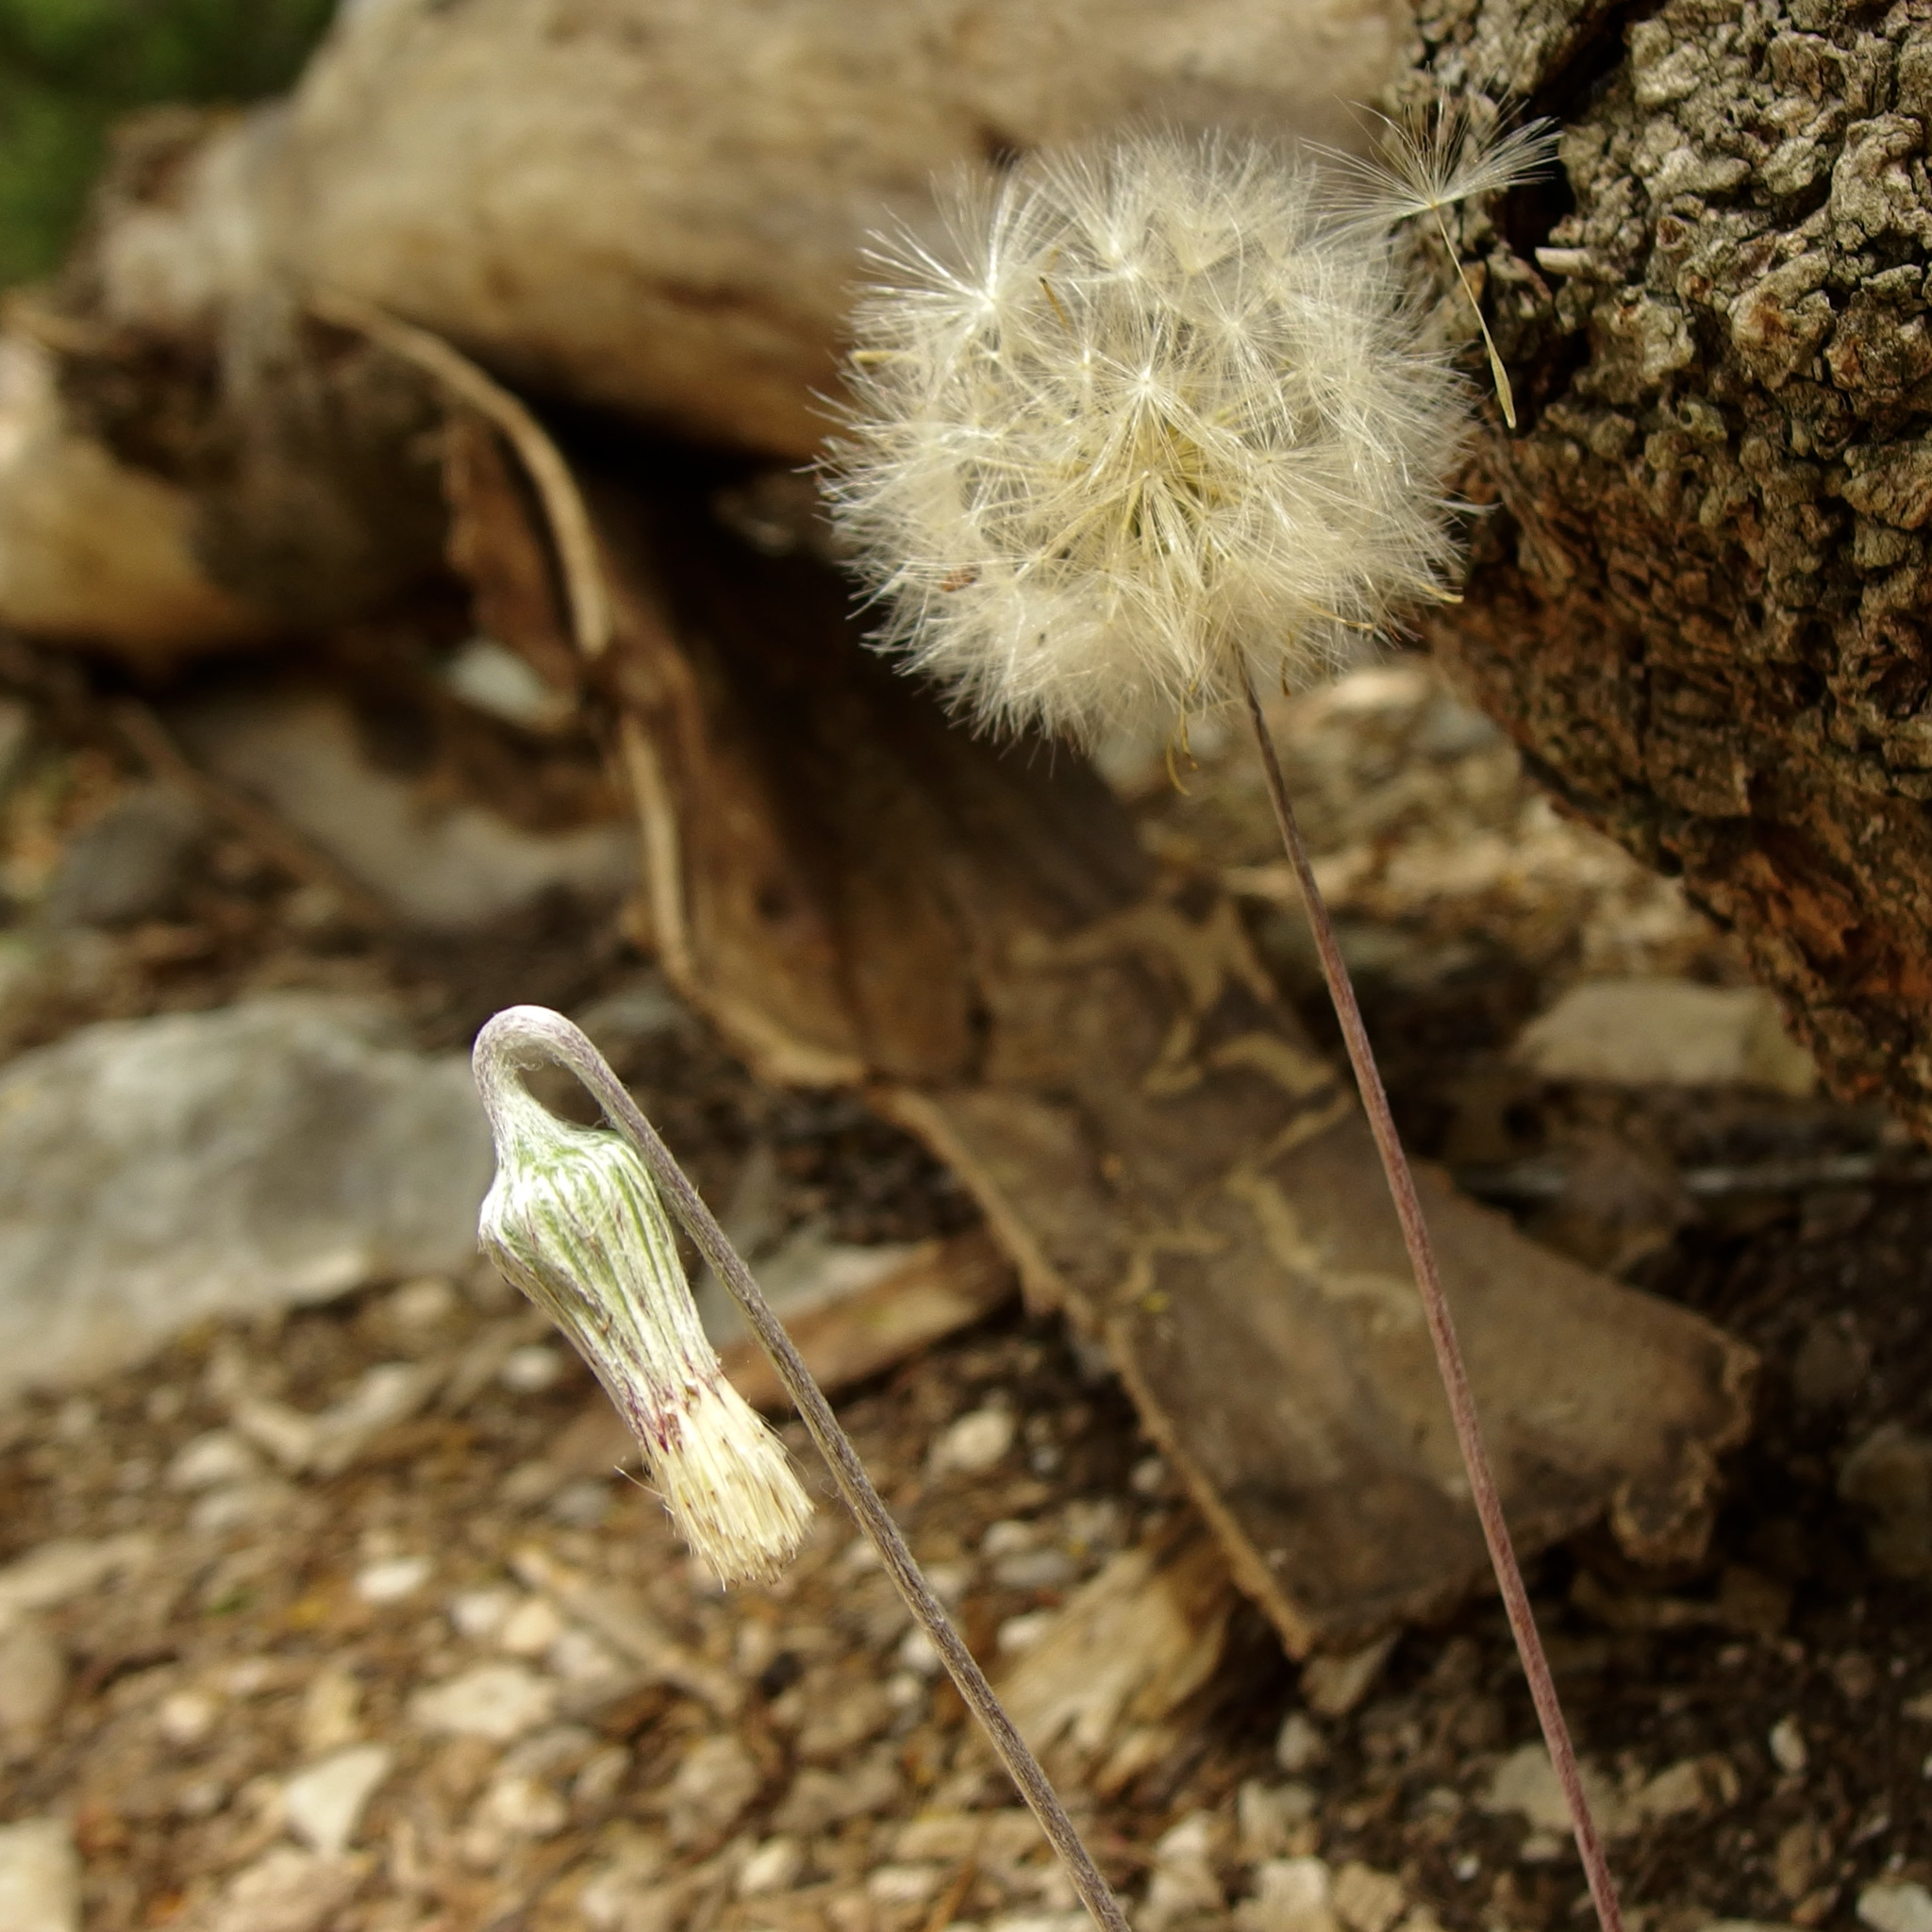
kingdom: Plantae
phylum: Tracheophyta
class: Magnoliopsida
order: Asterales
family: Asteraceae
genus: Chaptalia
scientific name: Chaptalia texana
